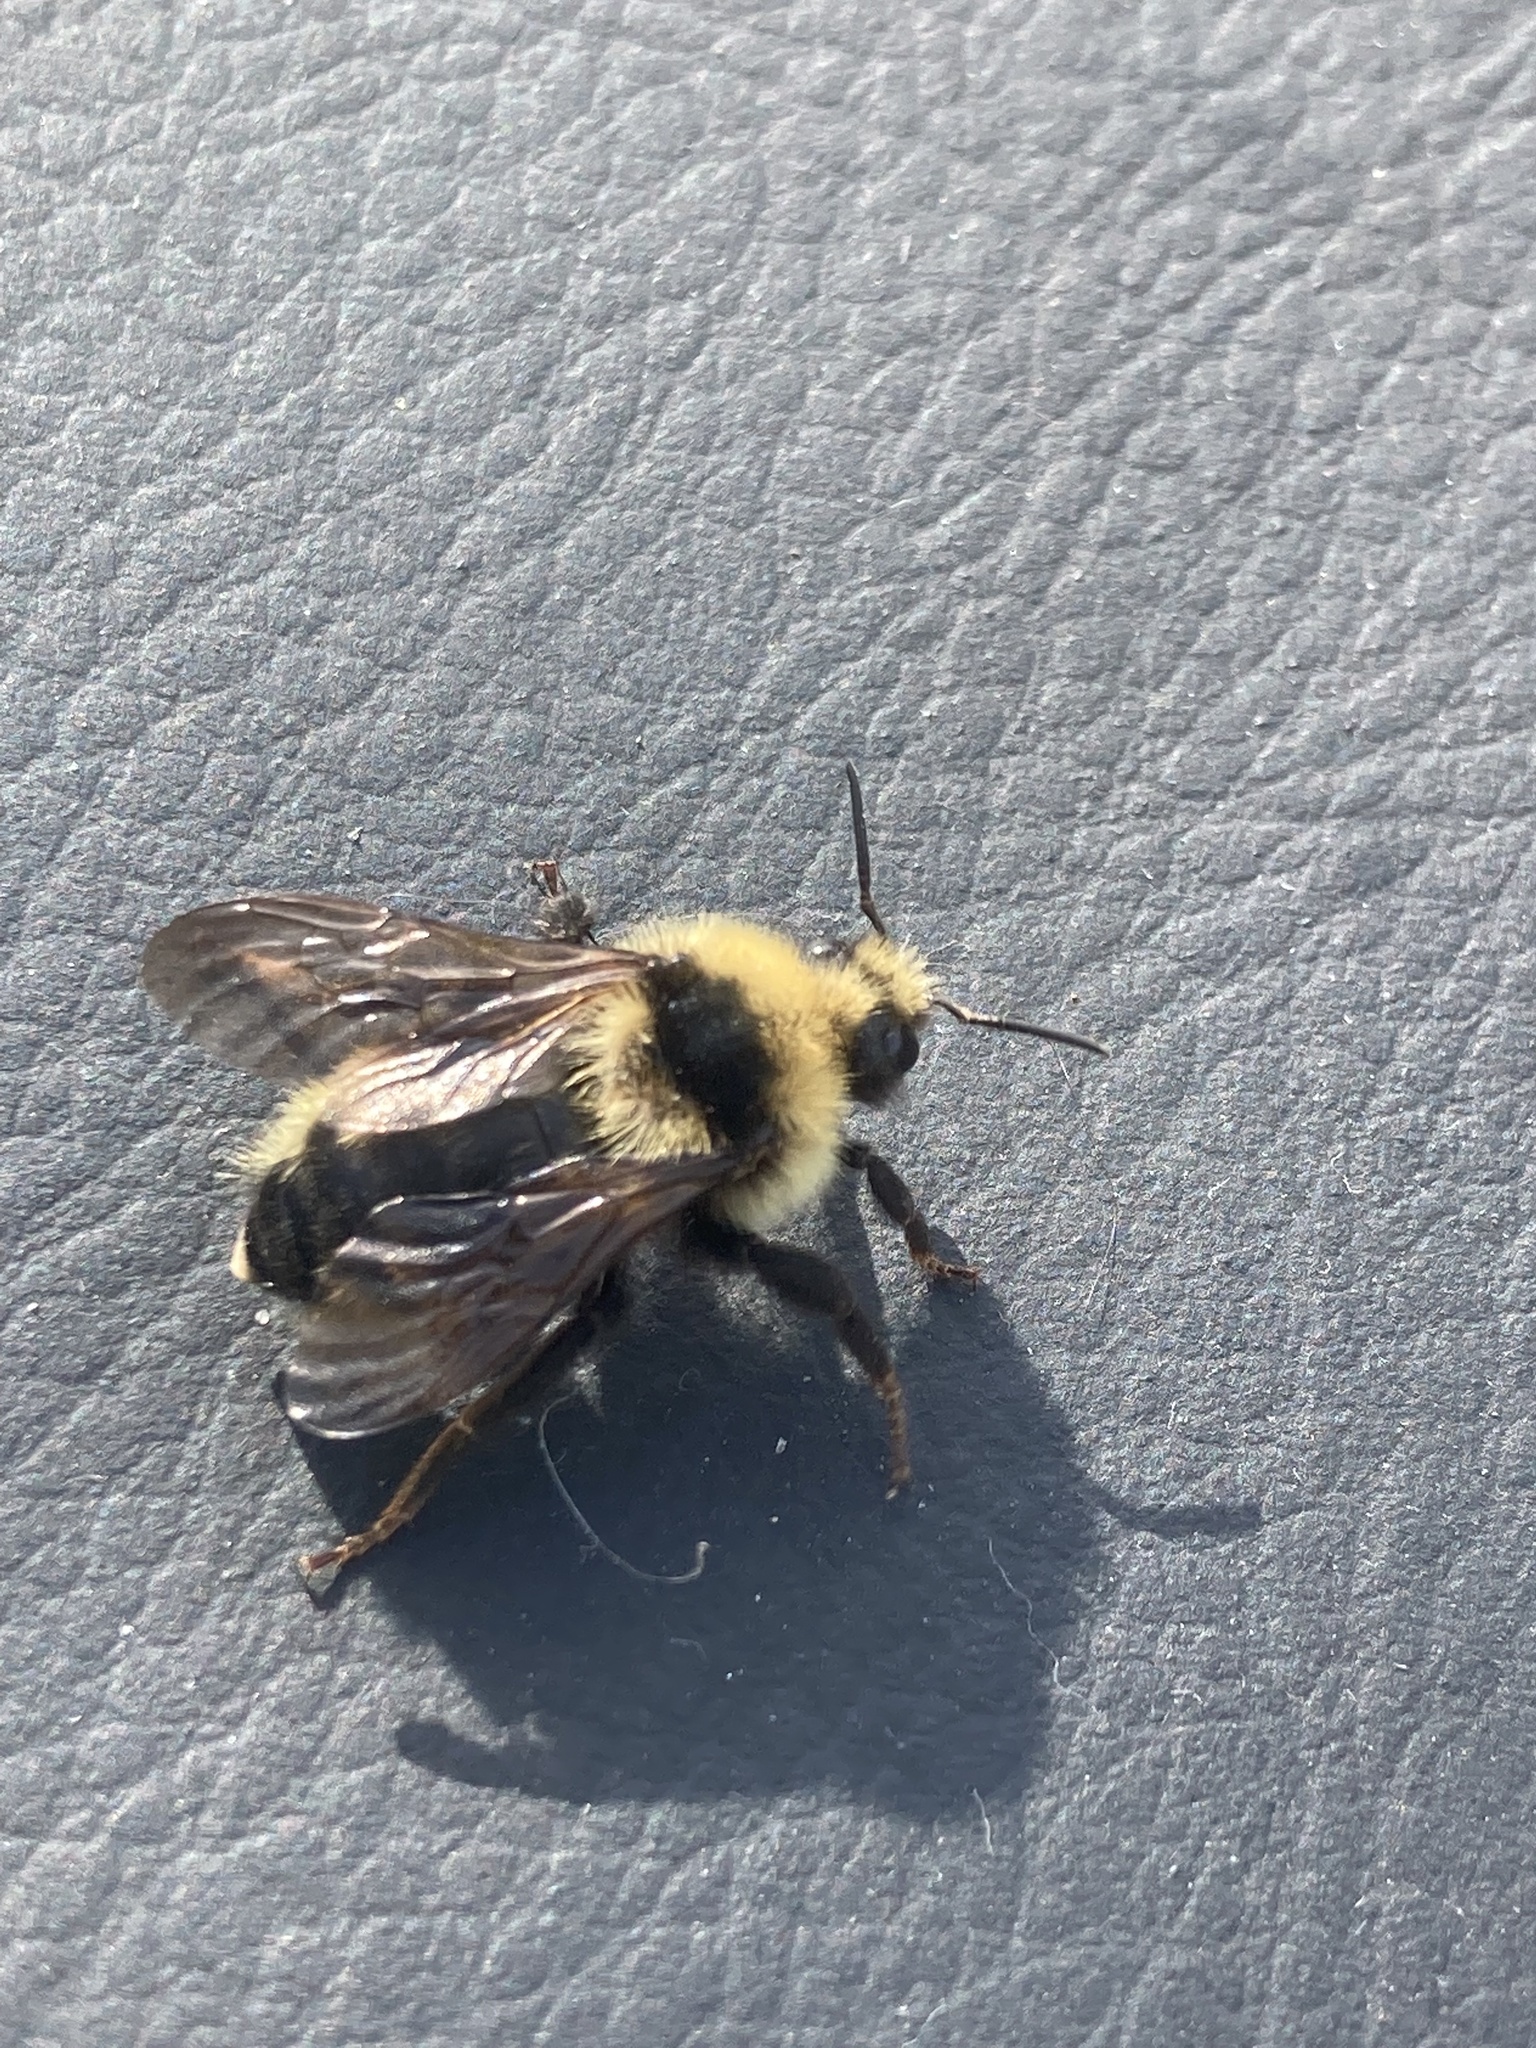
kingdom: Animalia
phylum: Arthropoda
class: Insecta
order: Hymenoptera
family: Apidae
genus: Bombus
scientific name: Bombus insularis
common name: Indiscriminate cuckoo bumble bee
